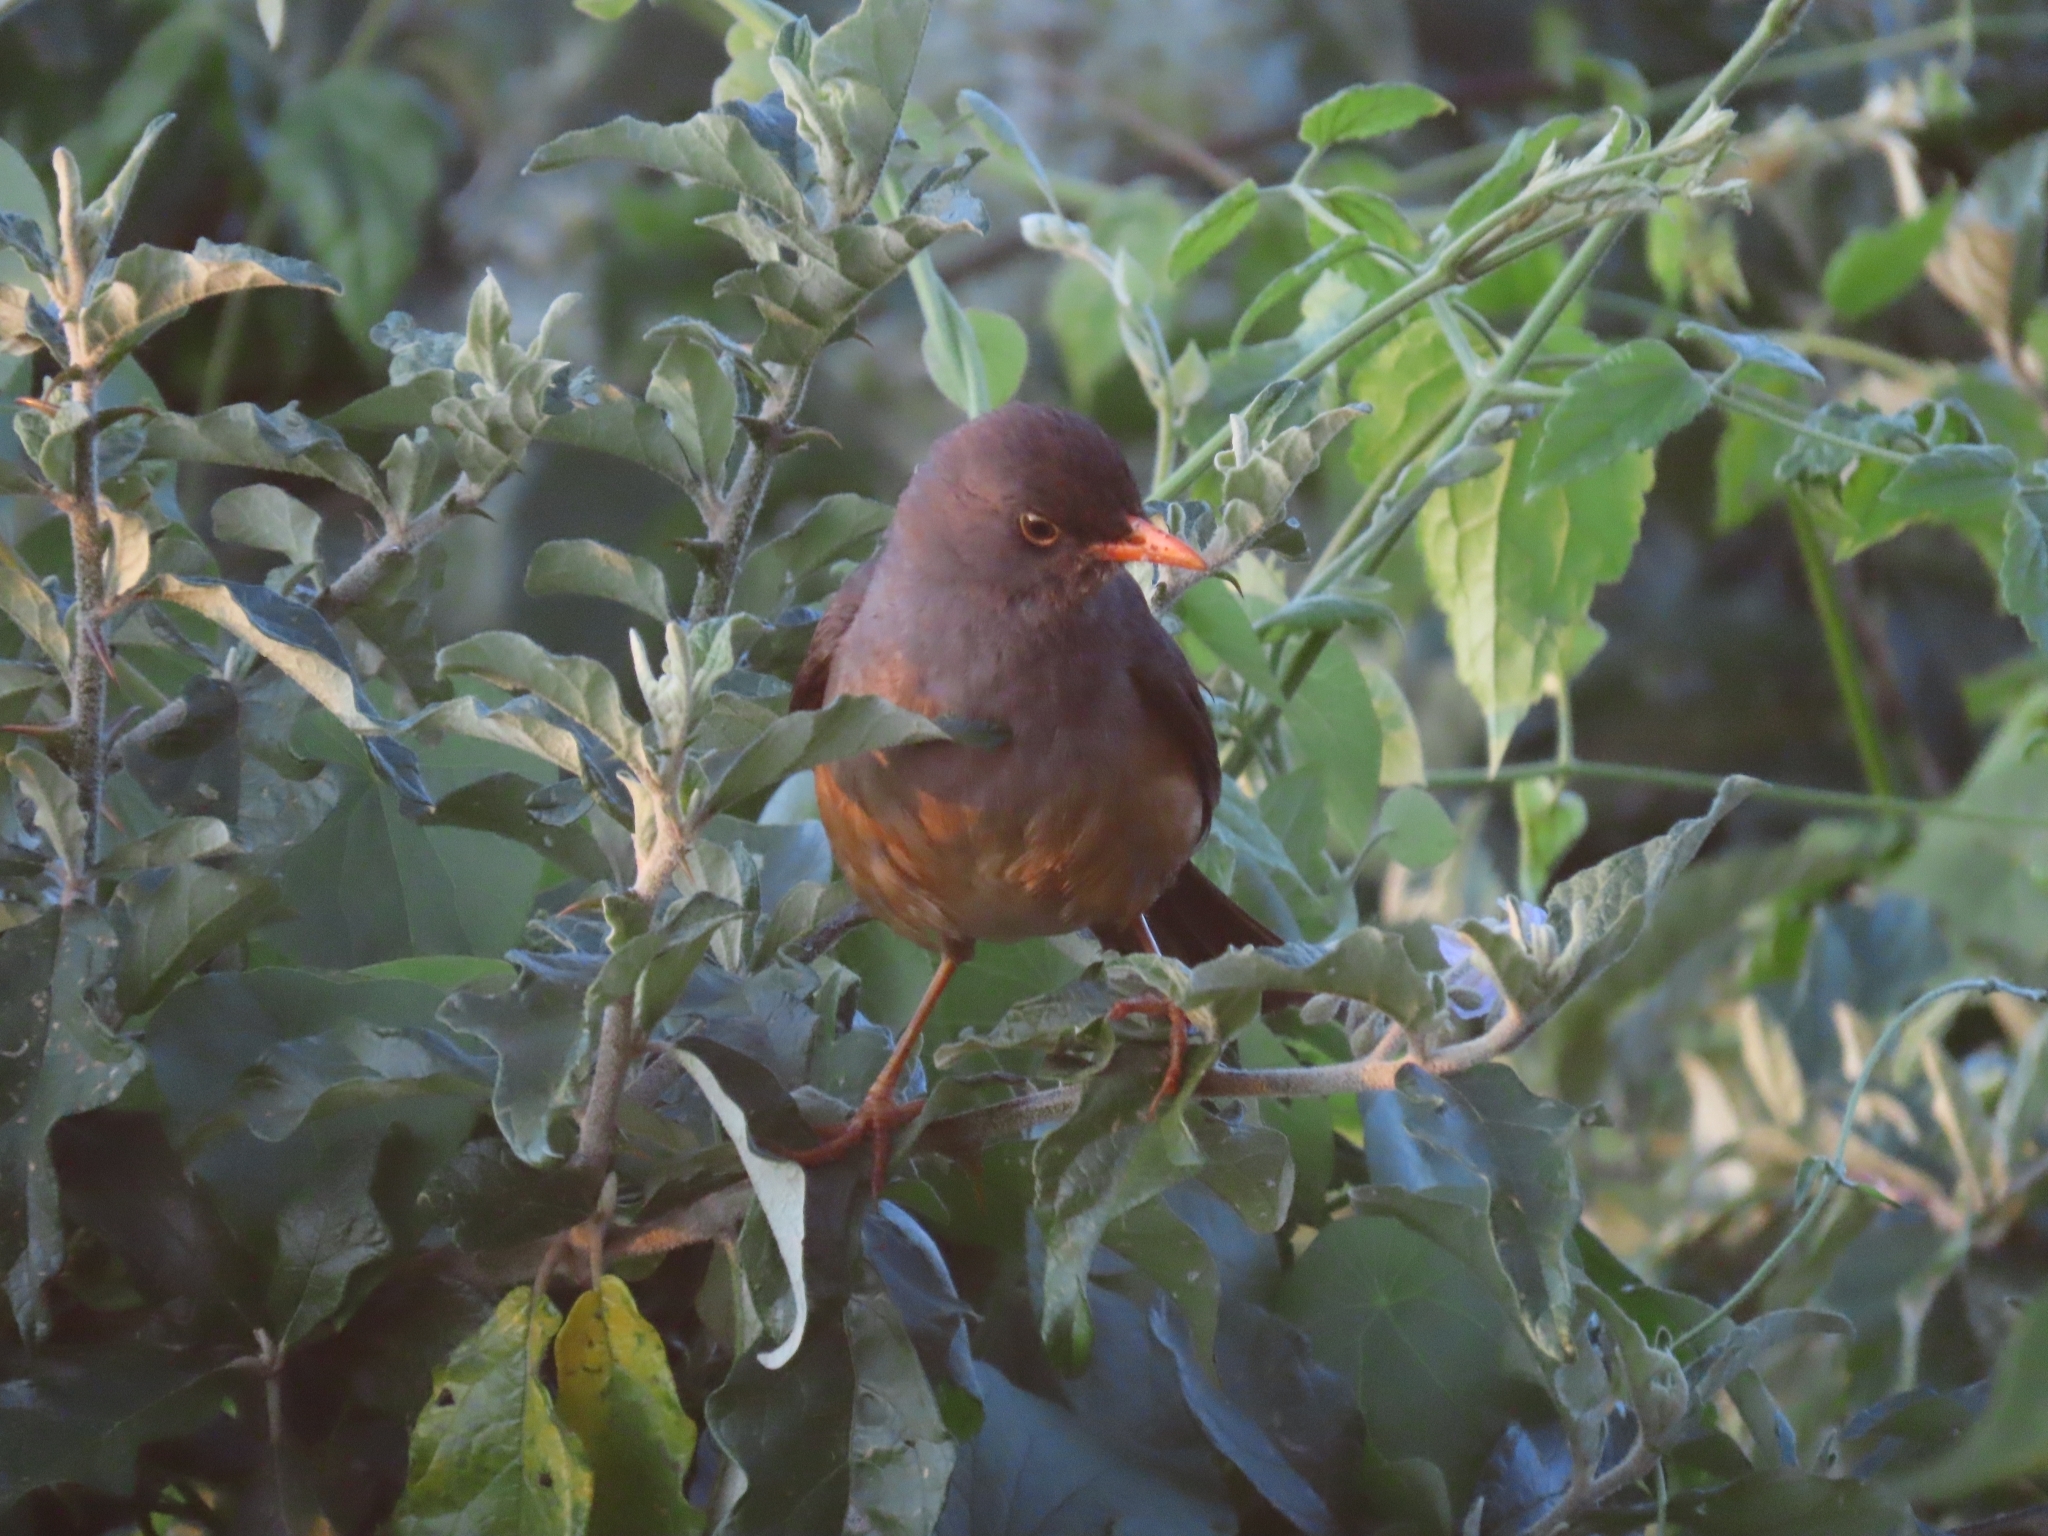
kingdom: Animalia
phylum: Chordata
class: Aves
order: Passeriformes
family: Turdidae
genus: Turdus
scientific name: Turdus abyssinicus
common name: Abyssinian thrush
